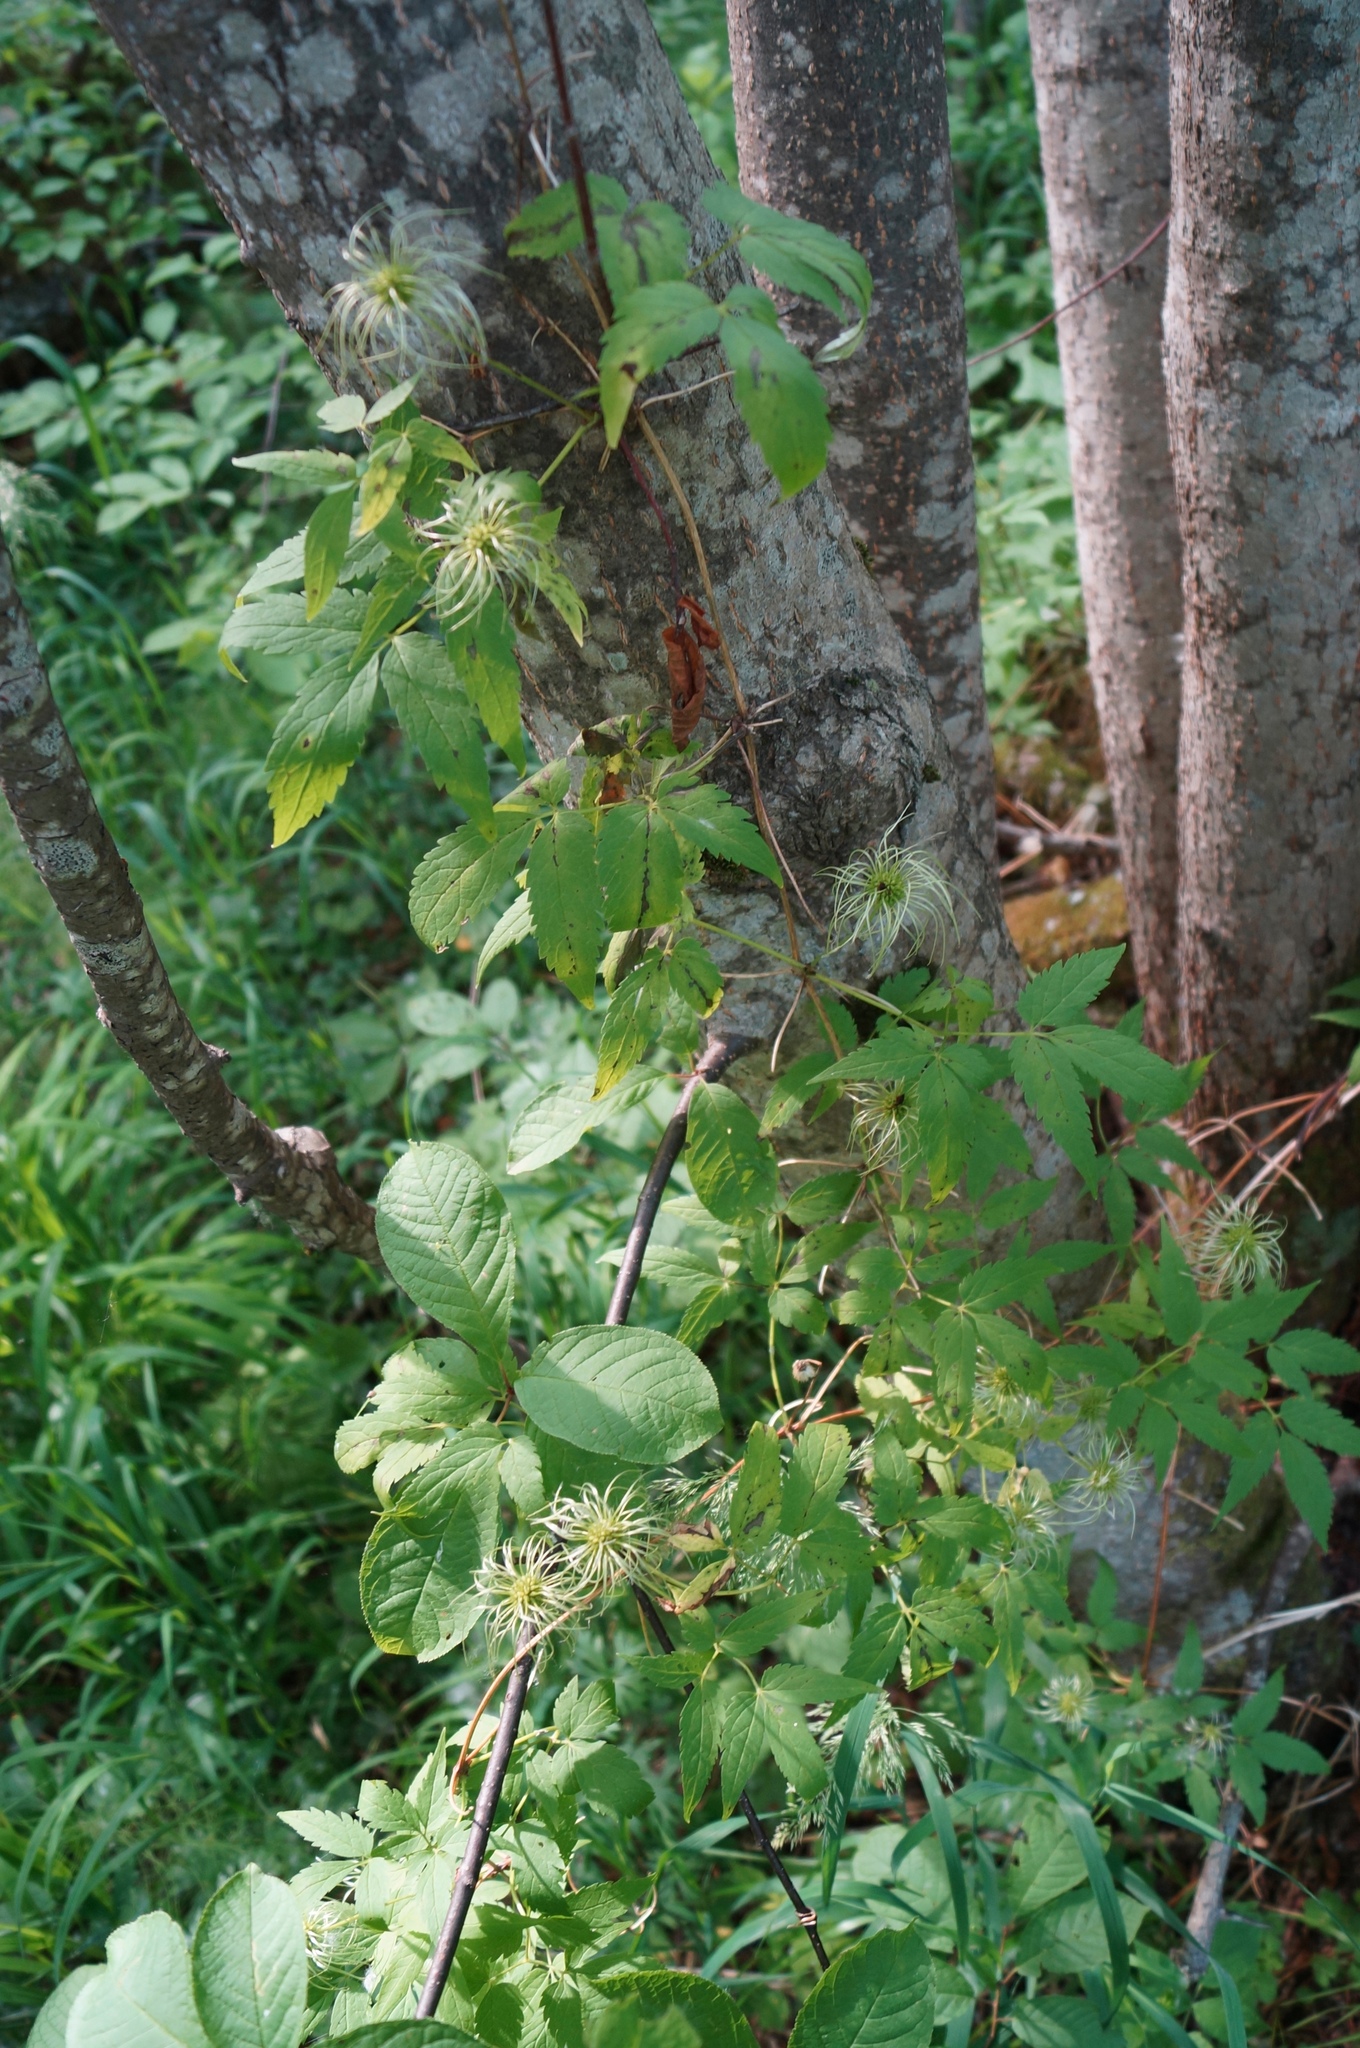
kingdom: Plantae
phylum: Tracheophyta
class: Magnoliopsida
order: Ranunculales
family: Ranunculaceae
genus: Clematis
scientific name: Clematis sibirica
